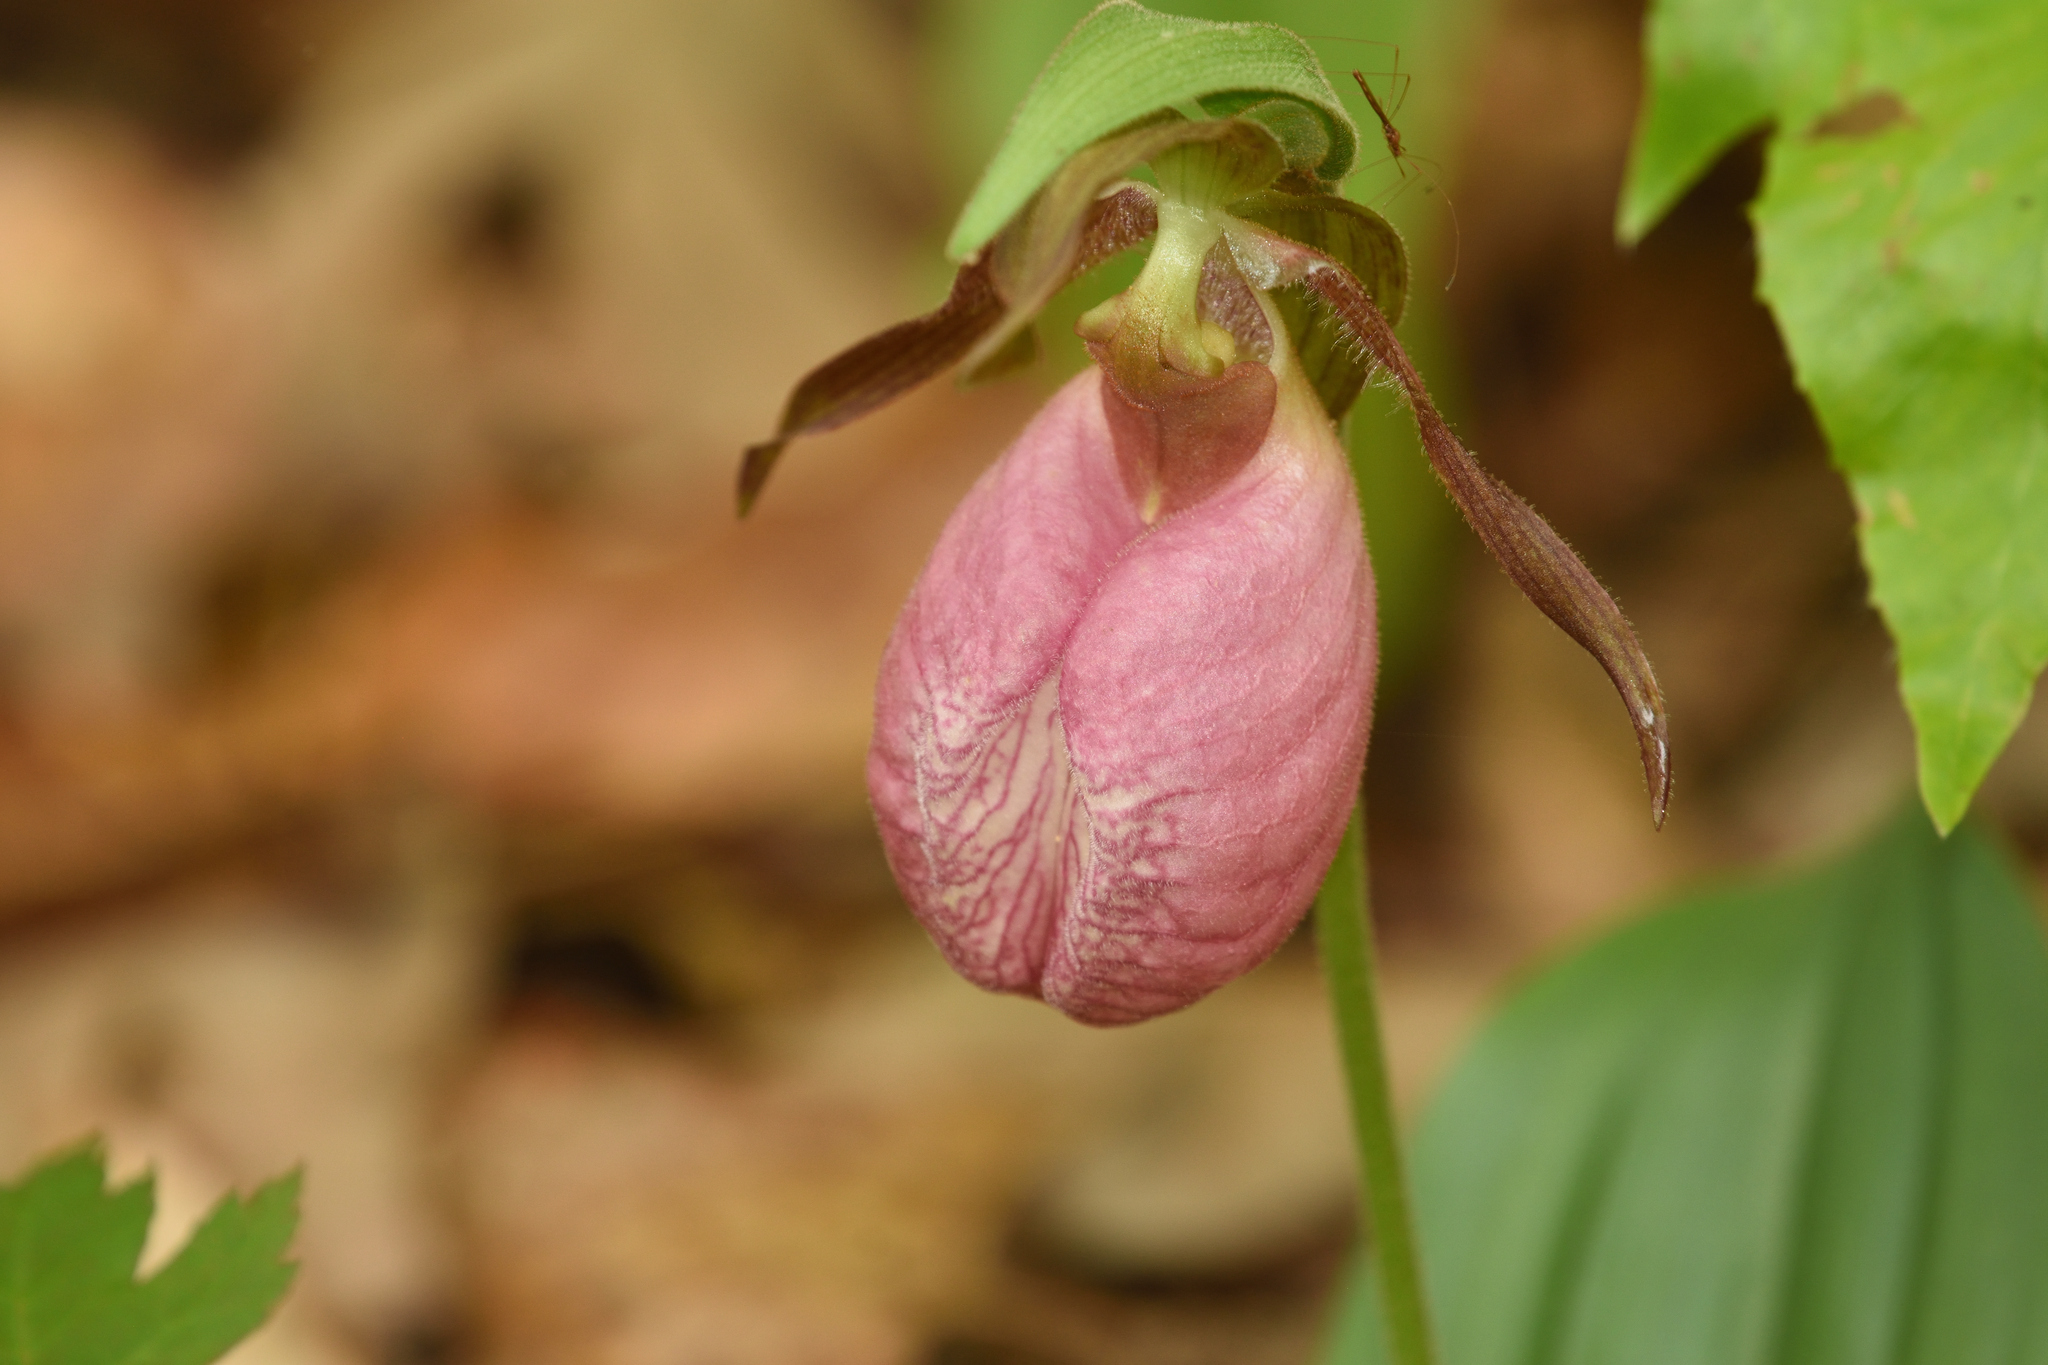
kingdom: Plantae
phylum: Tracheophyta
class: Liliopsida
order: Asparagales
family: Orchidaceae
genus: Cypripedium
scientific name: Cypripedium acaule
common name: Pink lady's-slipper
